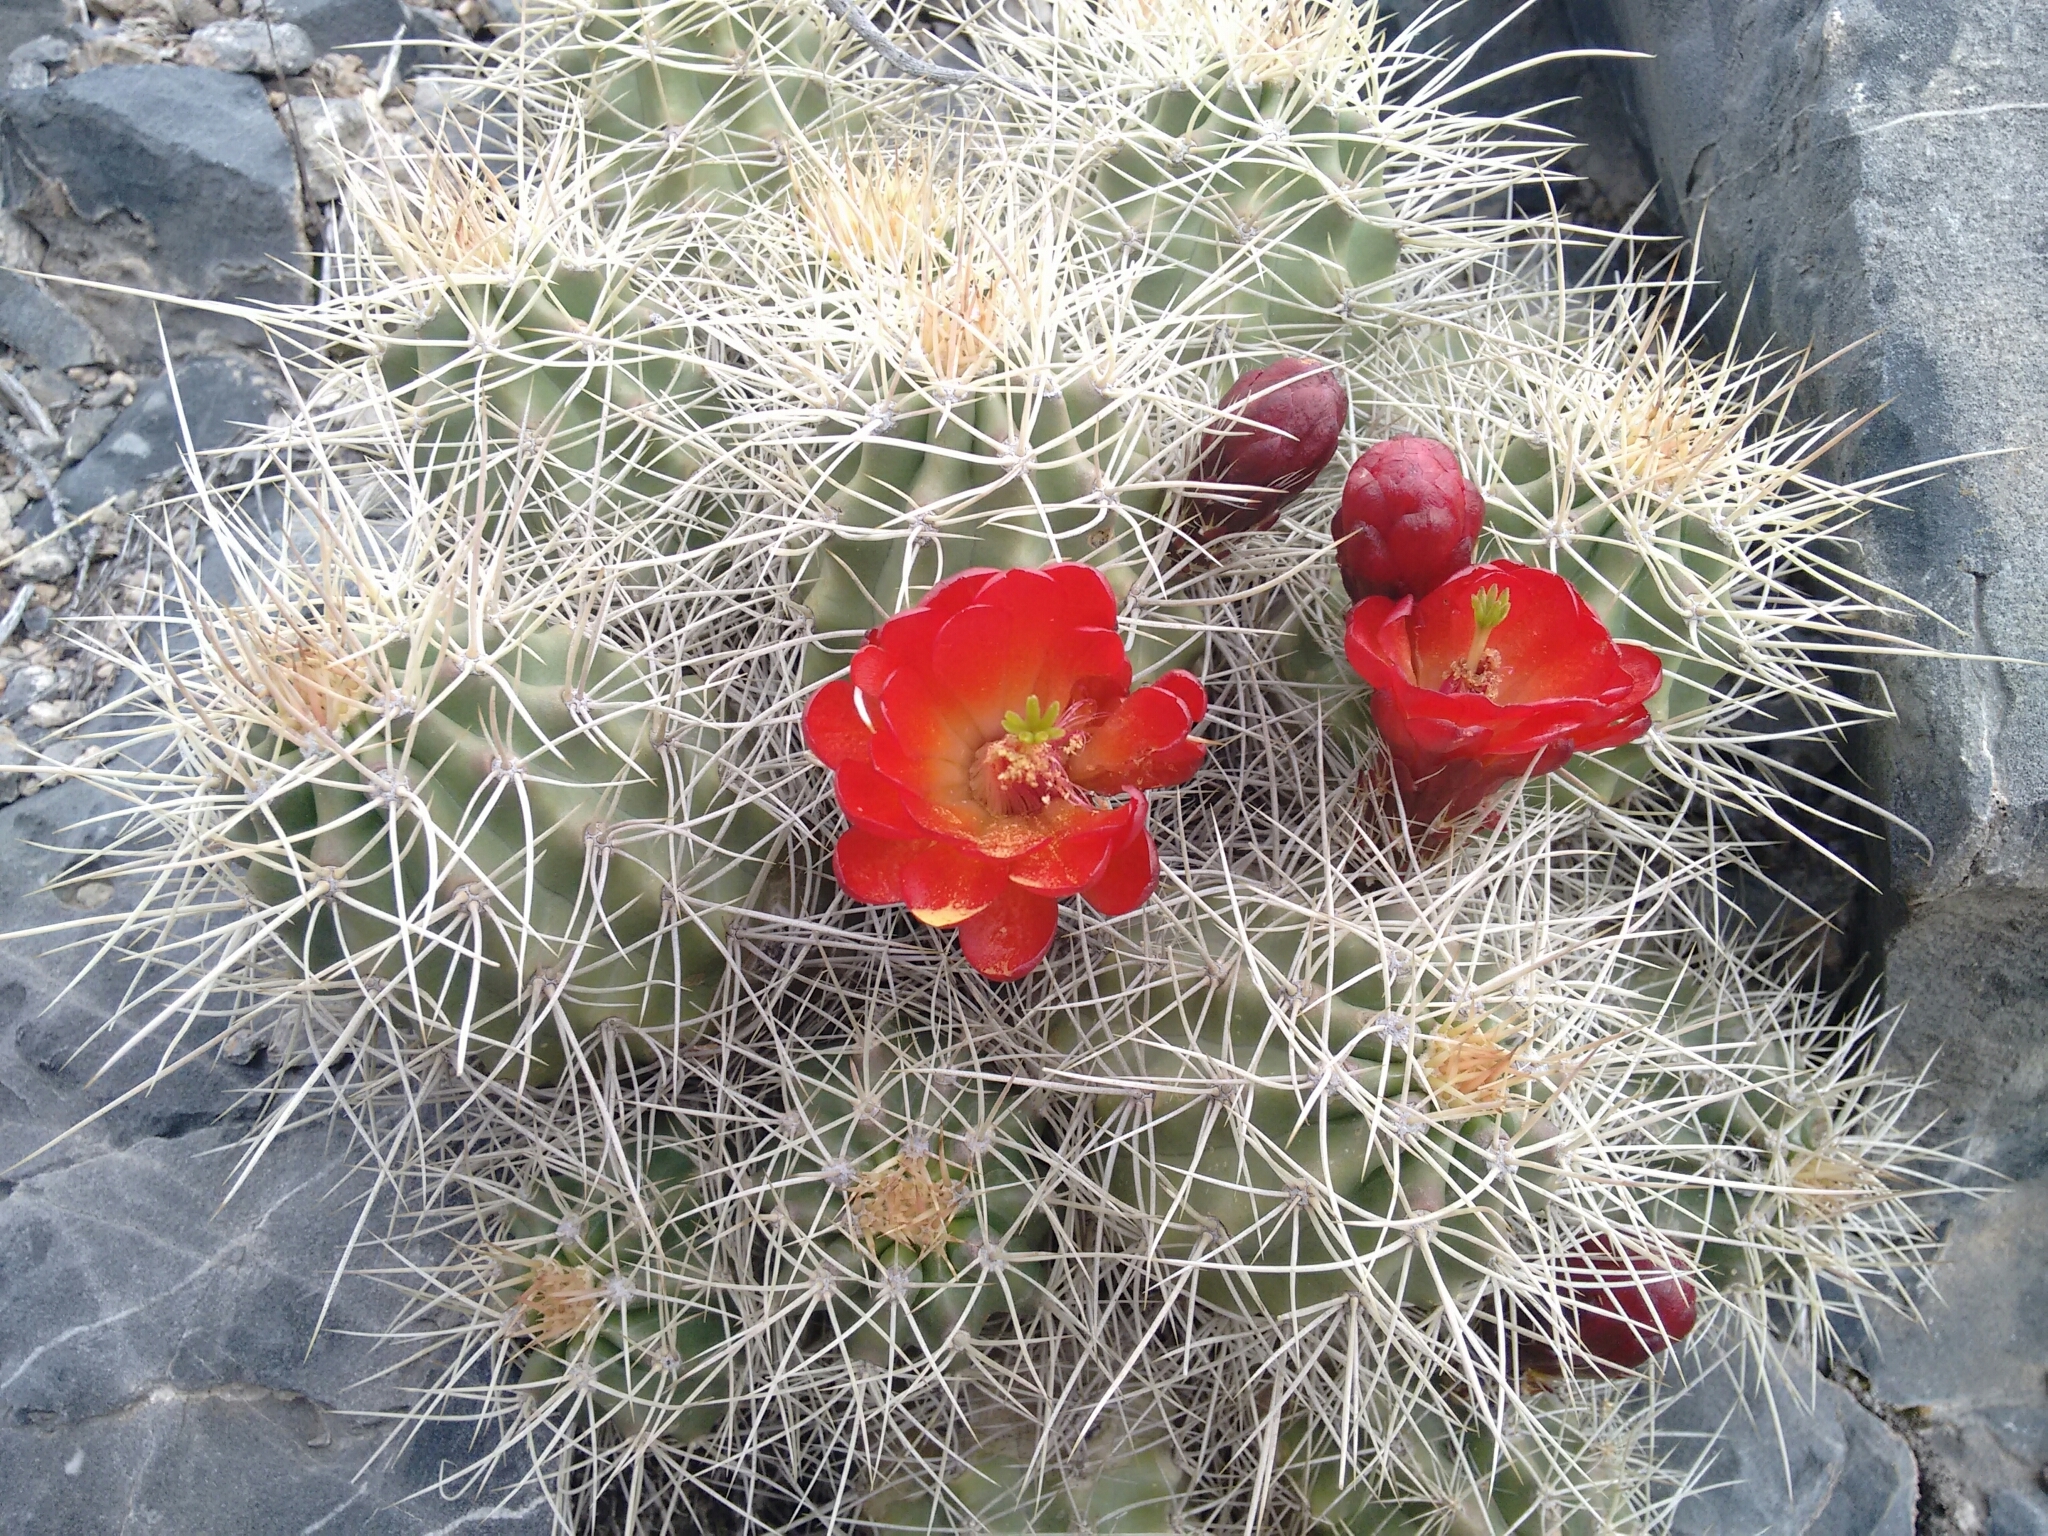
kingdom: Plantae
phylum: Tracheophyta
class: Magnoliopsida
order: Caryophyllales
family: Cactaceae
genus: Echinocereus
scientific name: Echinocereus triglochidiatus
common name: Claretcup hedgehog
